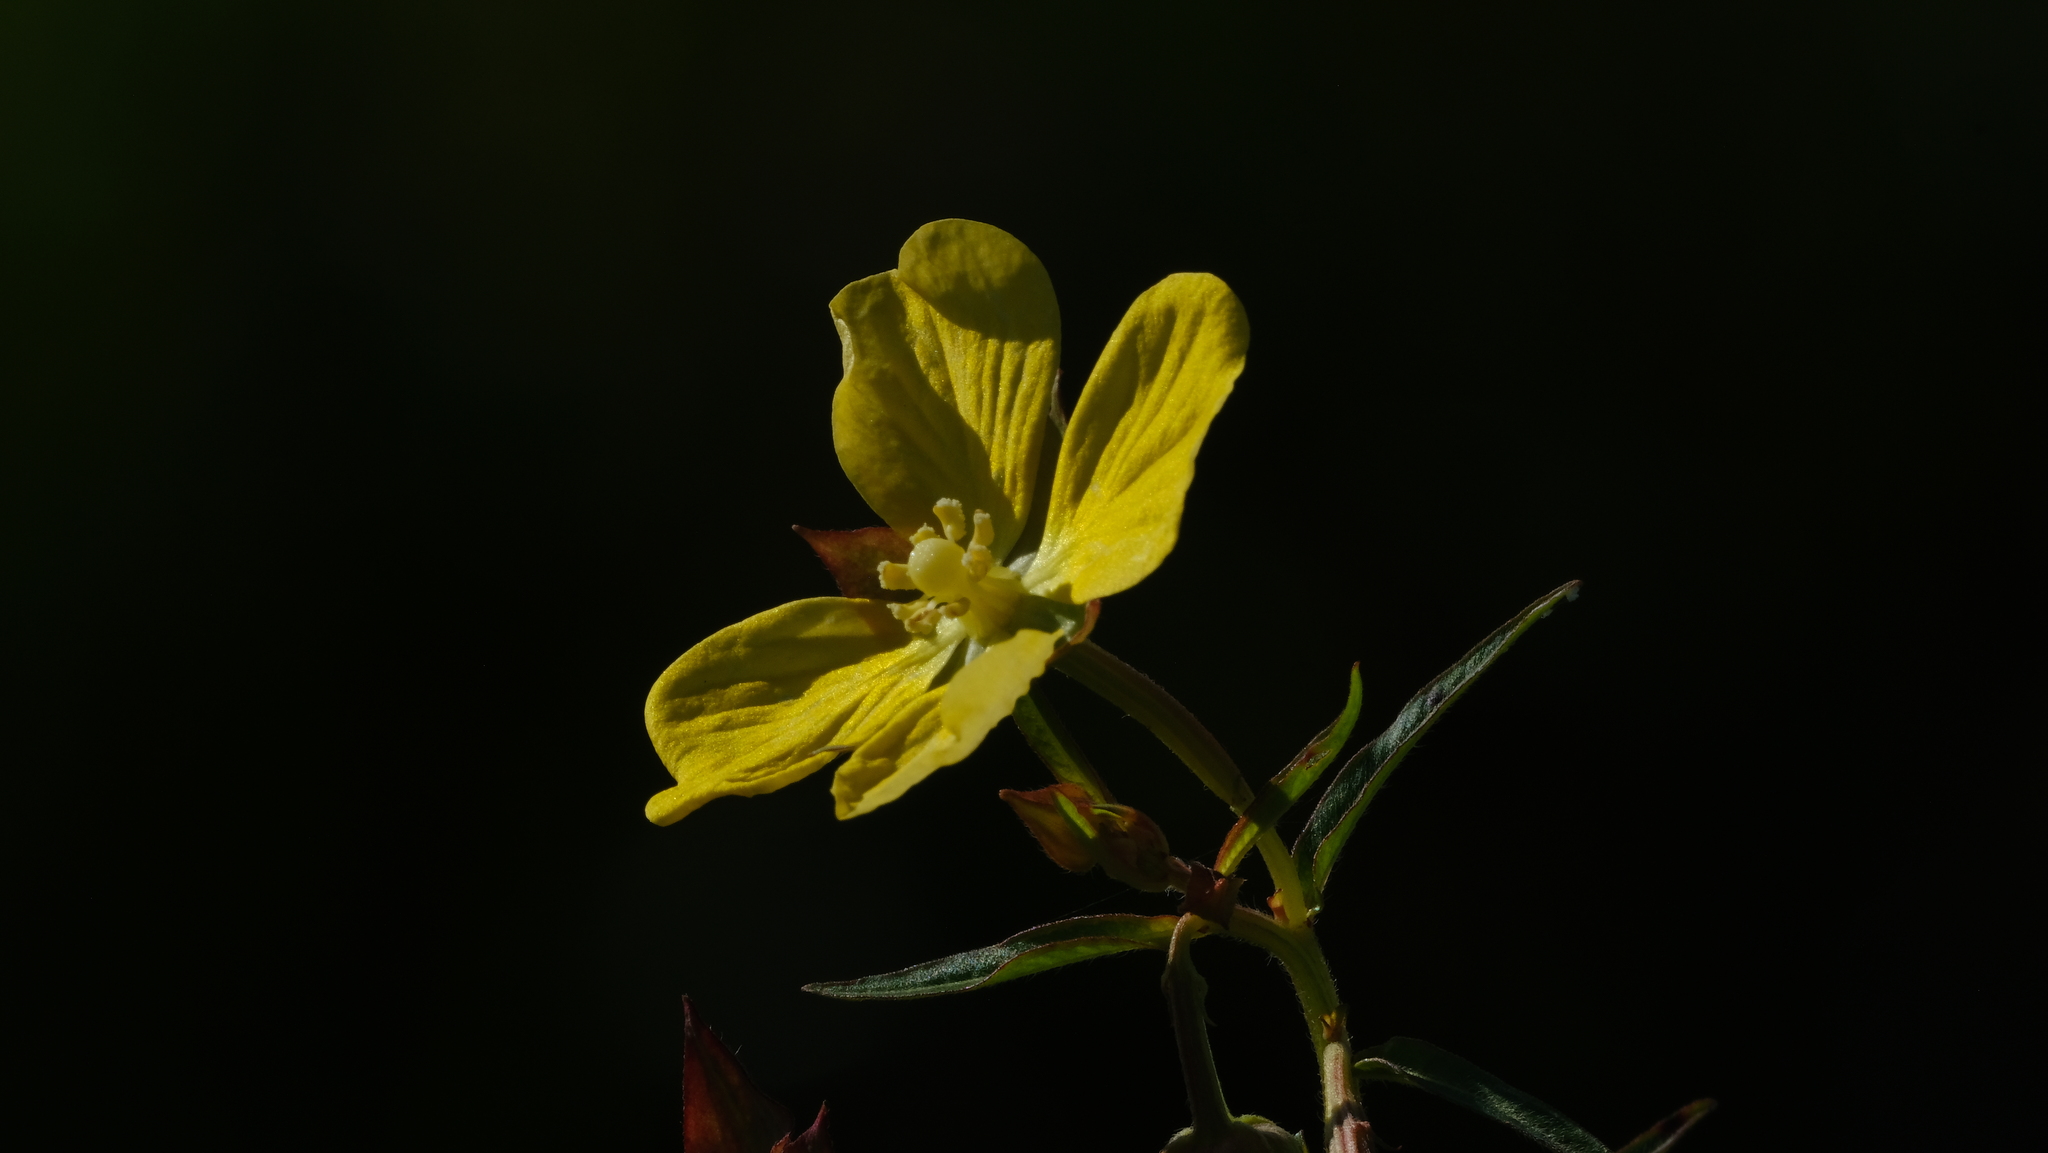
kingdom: Plantae
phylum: Tracheophyta
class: Magnoliopsida
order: Myrtales
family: Onagraceae
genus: Ludwigia
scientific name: Ludwigia octovalvis
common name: Water-primrose
